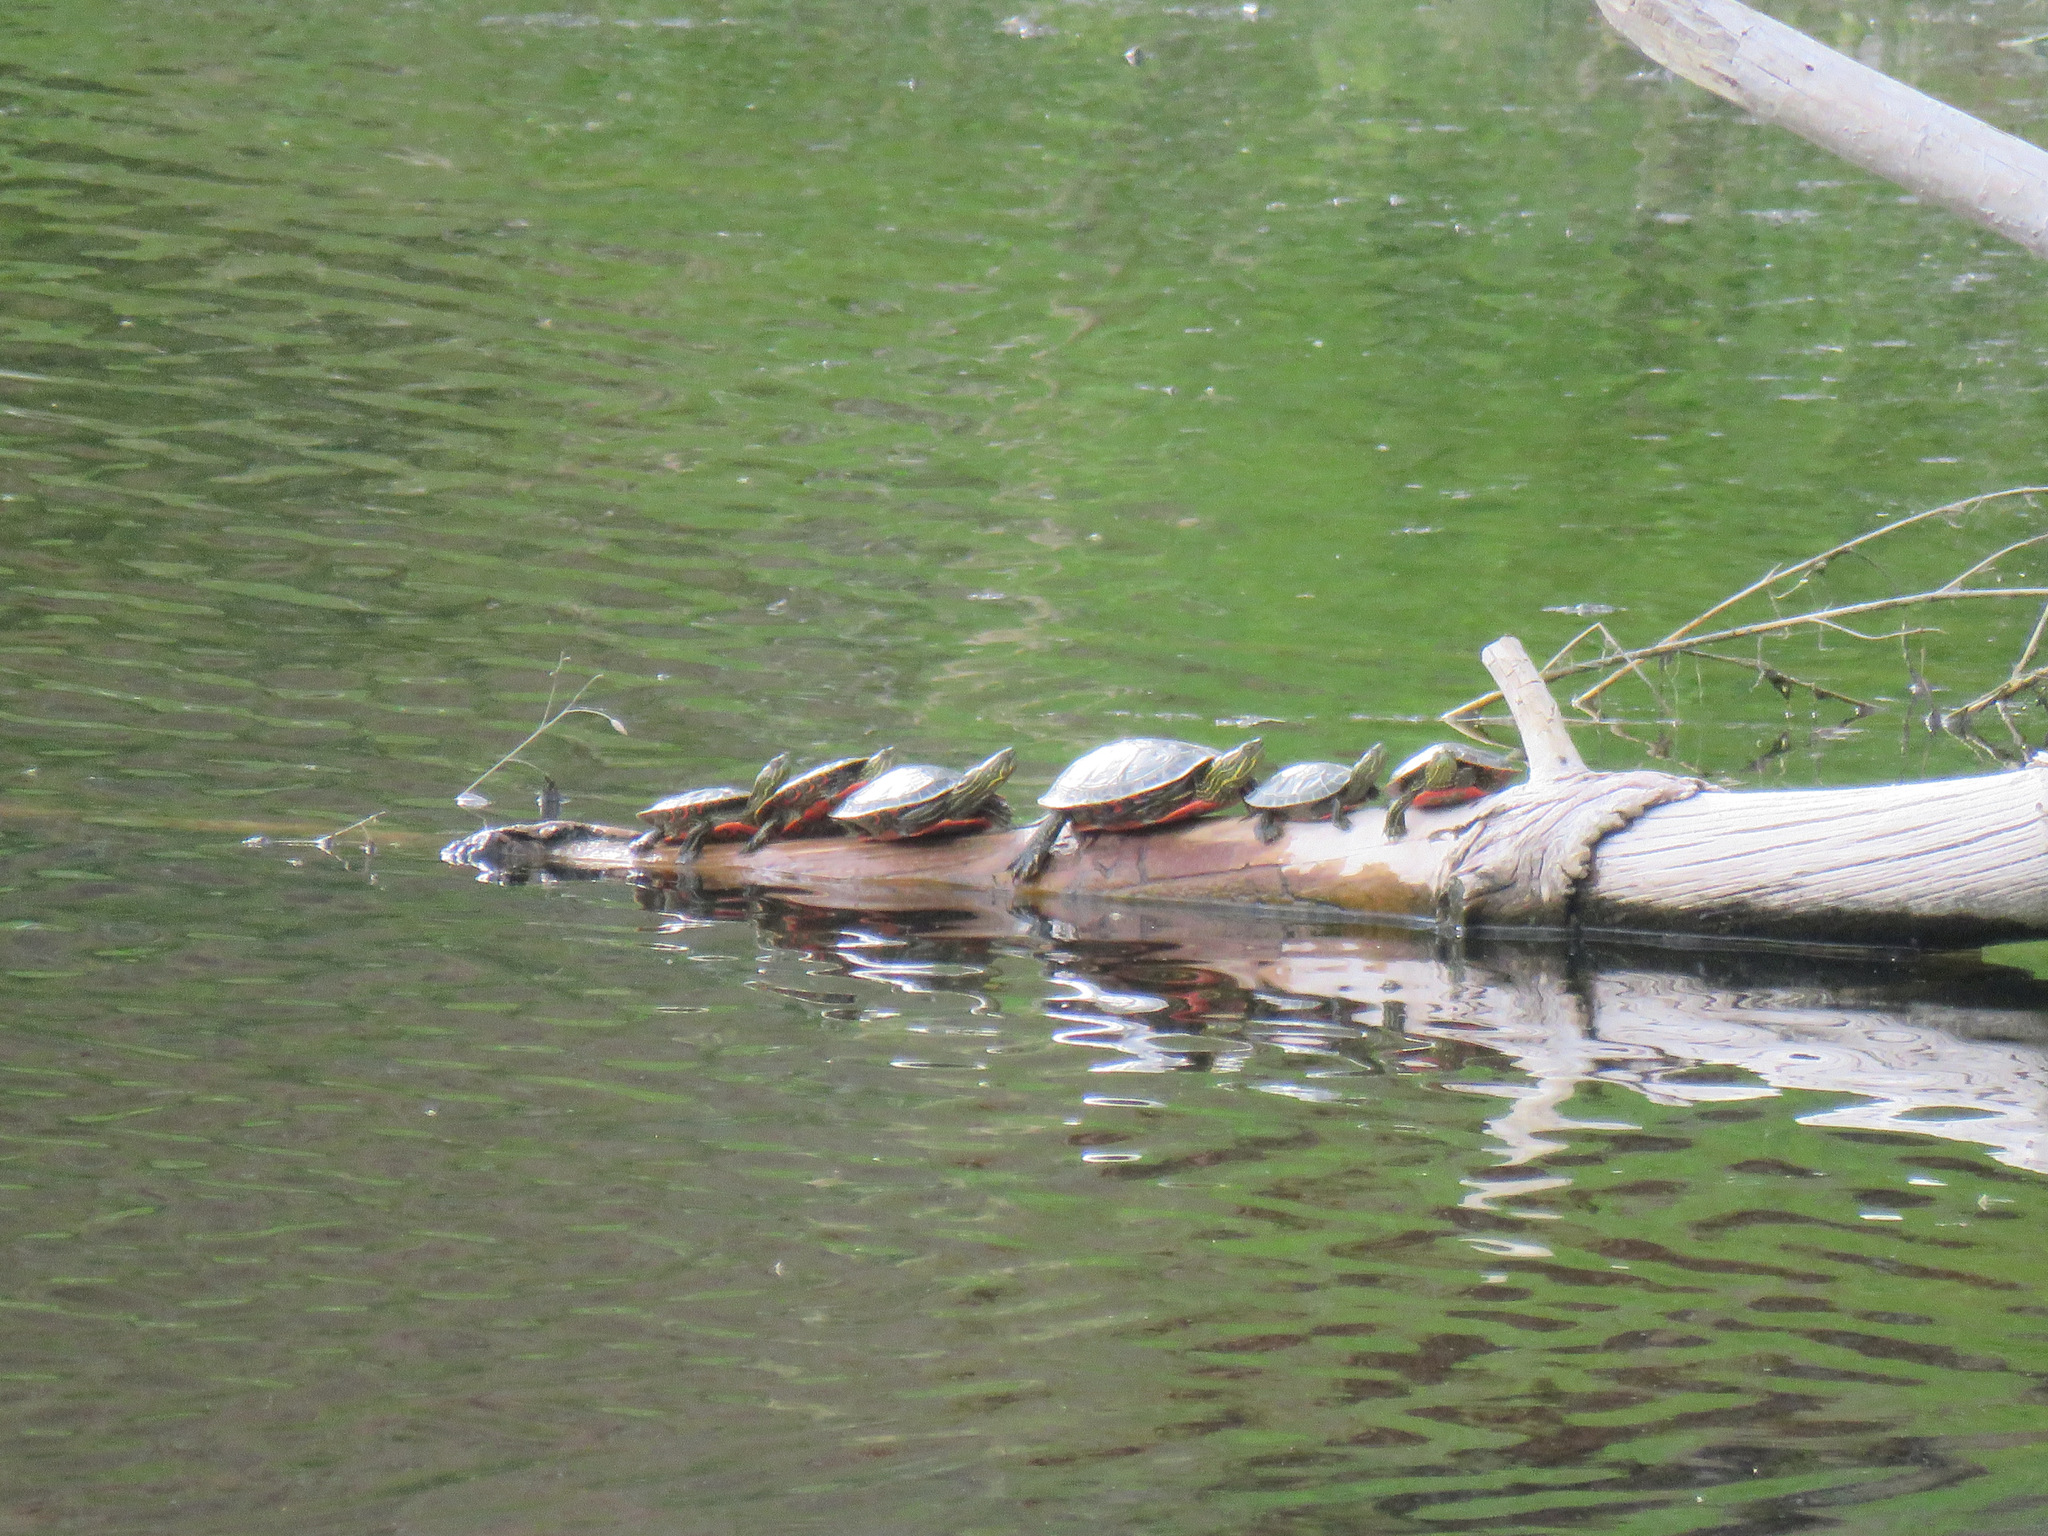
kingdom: Animalia
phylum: Chordata
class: Testudines
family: Emydidae
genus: Chrysemys
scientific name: Chrysemys picta
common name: Painted turtle
